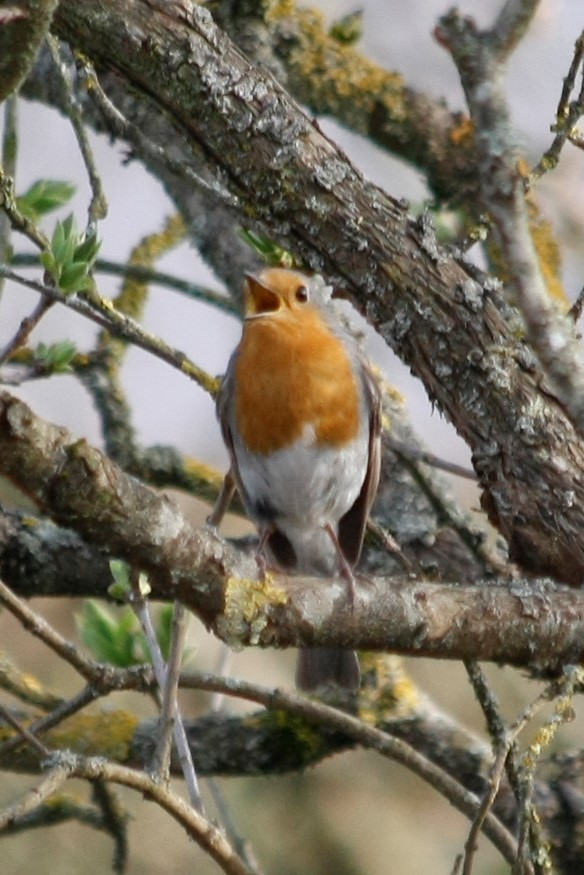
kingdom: Animalia
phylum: Chordata
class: Aves
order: Passeriformes
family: Muscicapidae
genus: Erithacus
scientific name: Erithacus rubecula
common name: European robin
